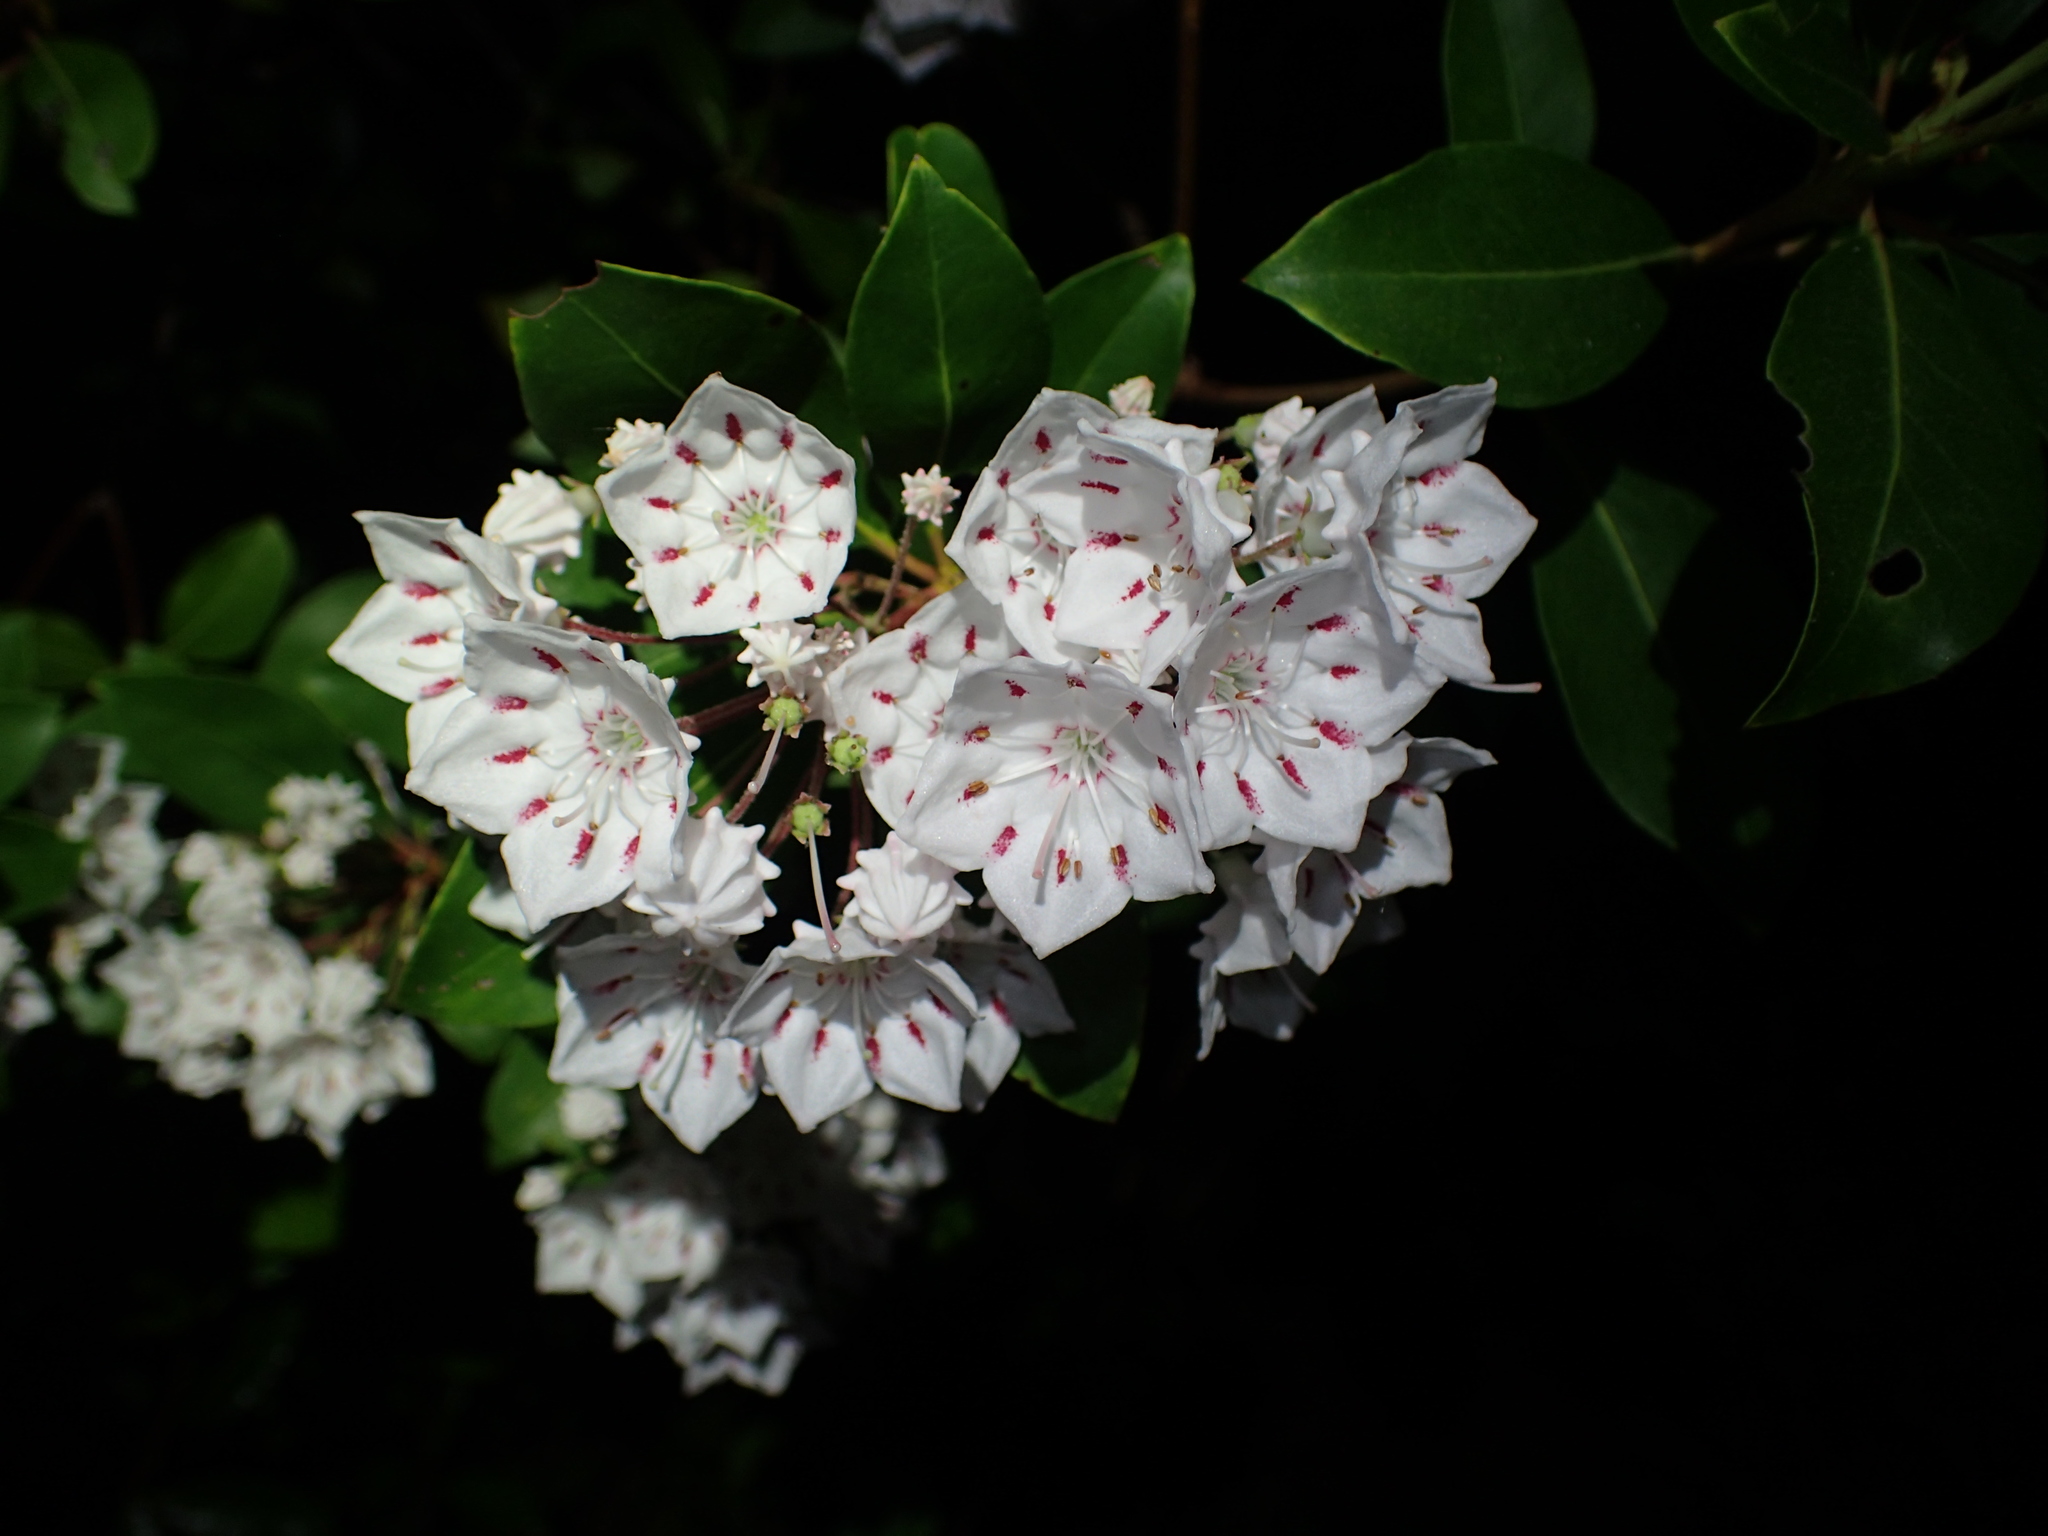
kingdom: Plantae
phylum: Tracheophyta
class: Magnoliopsida
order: Ericales
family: Ericaceae
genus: Kalmia
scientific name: Kalmia latifolia
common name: Mountain-laurel
